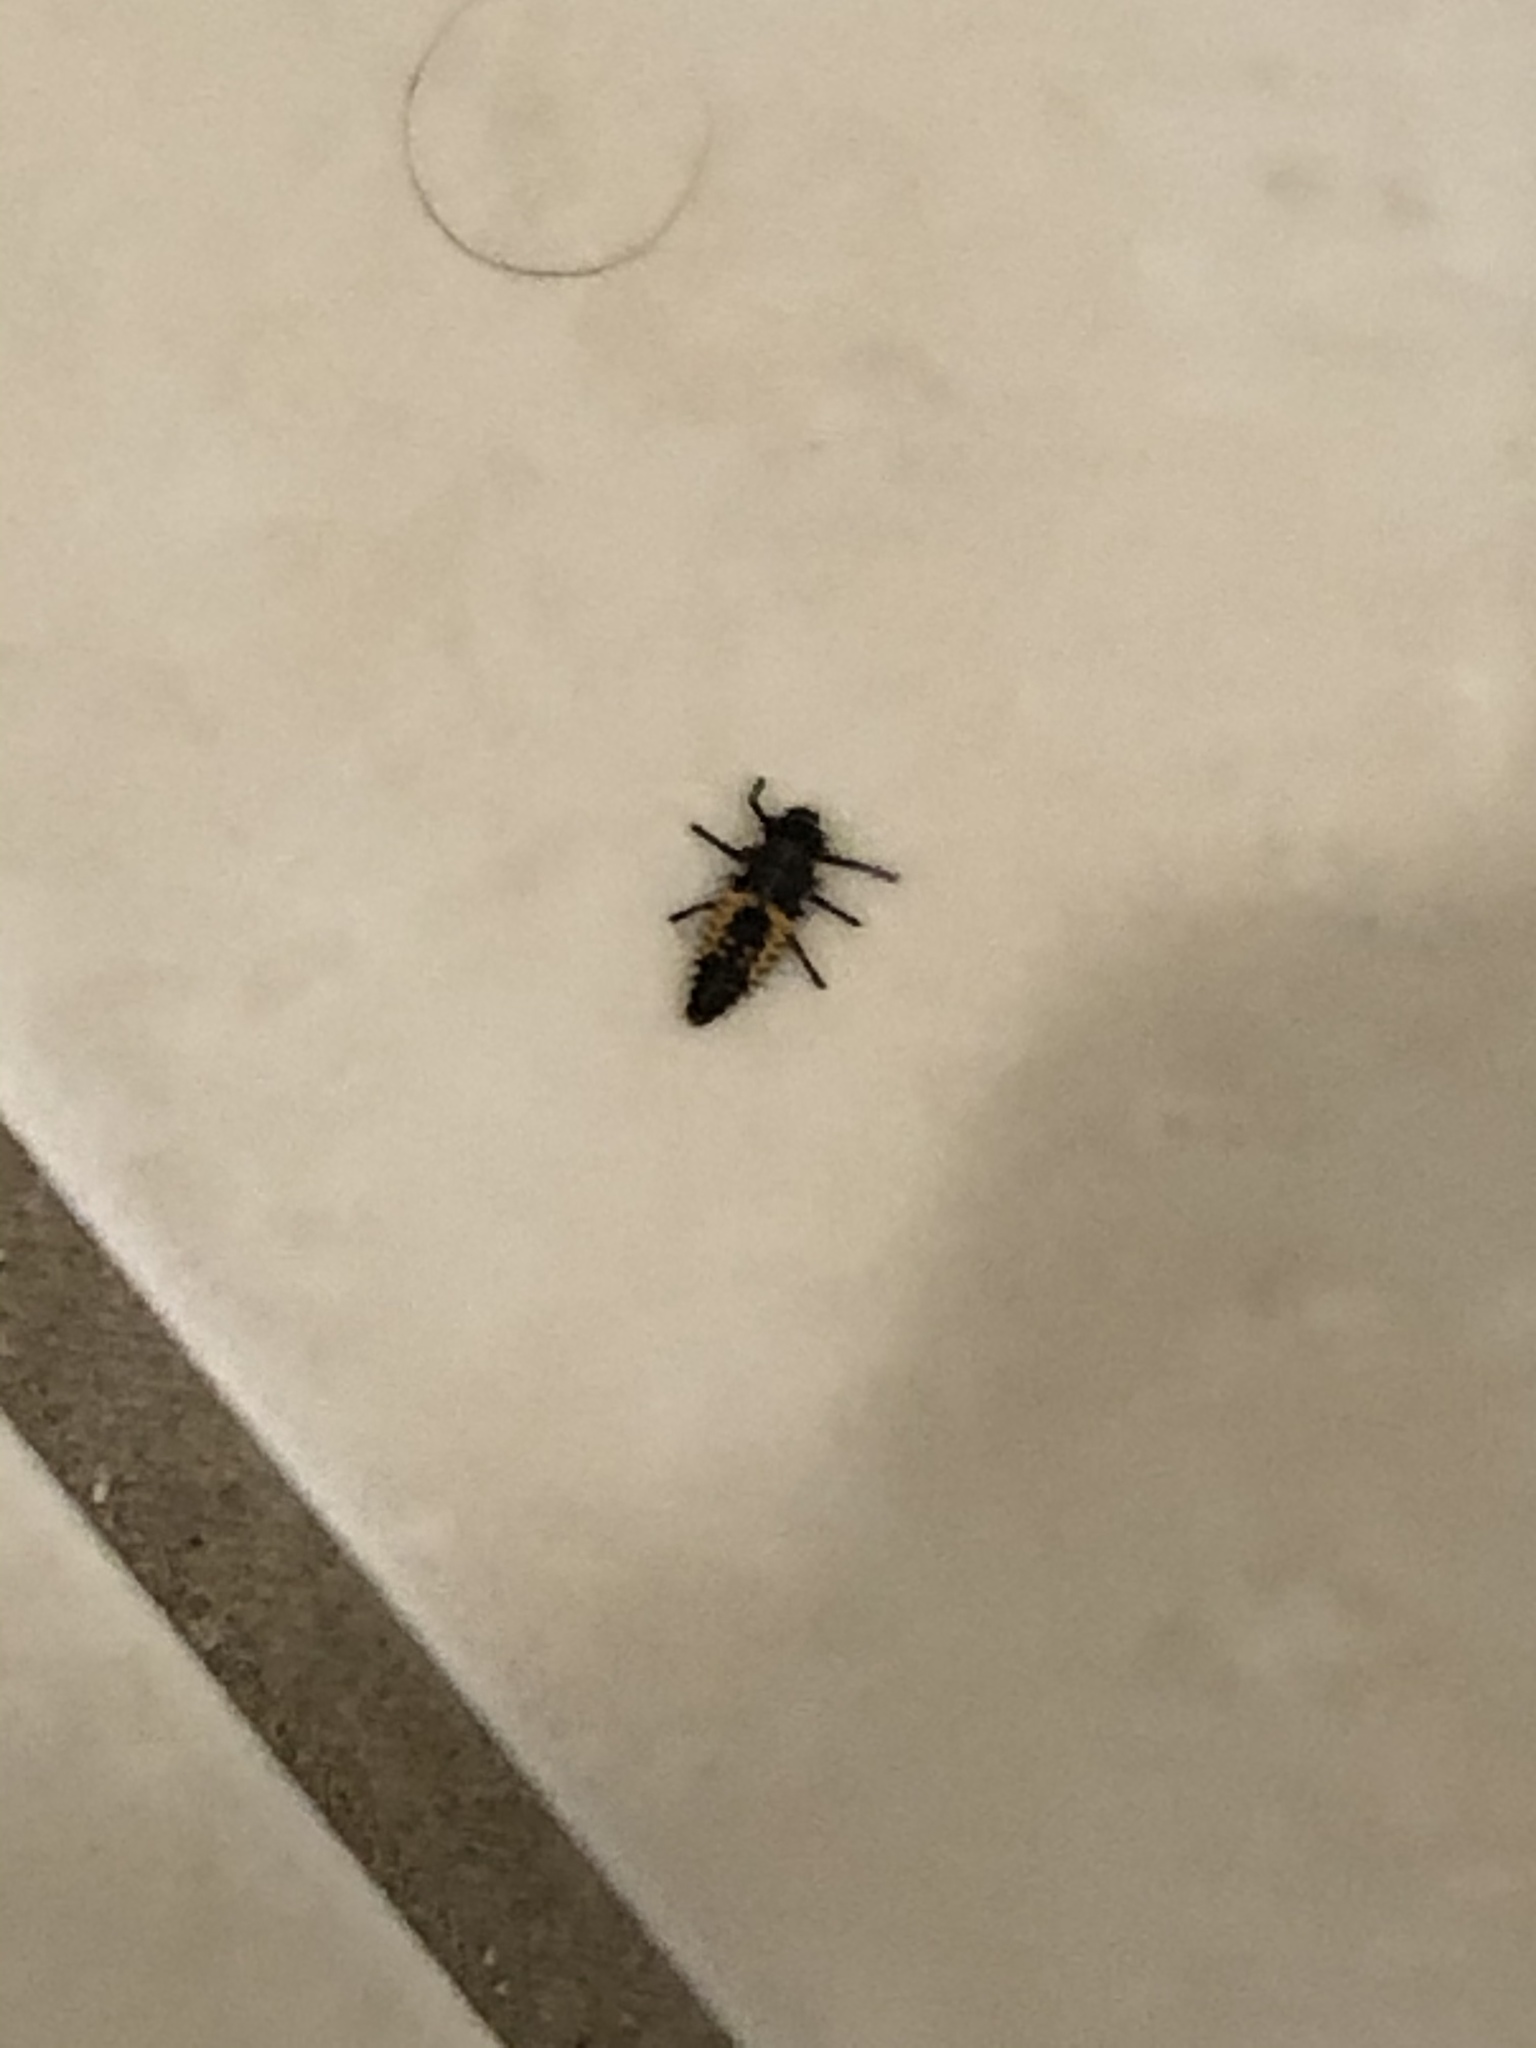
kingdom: Animalia
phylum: Arthropoda
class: Insecta
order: Coleoptera
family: Coccinellidae
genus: Harmonia
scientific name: Harmonia axyridis
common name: Harlequin ladybird
